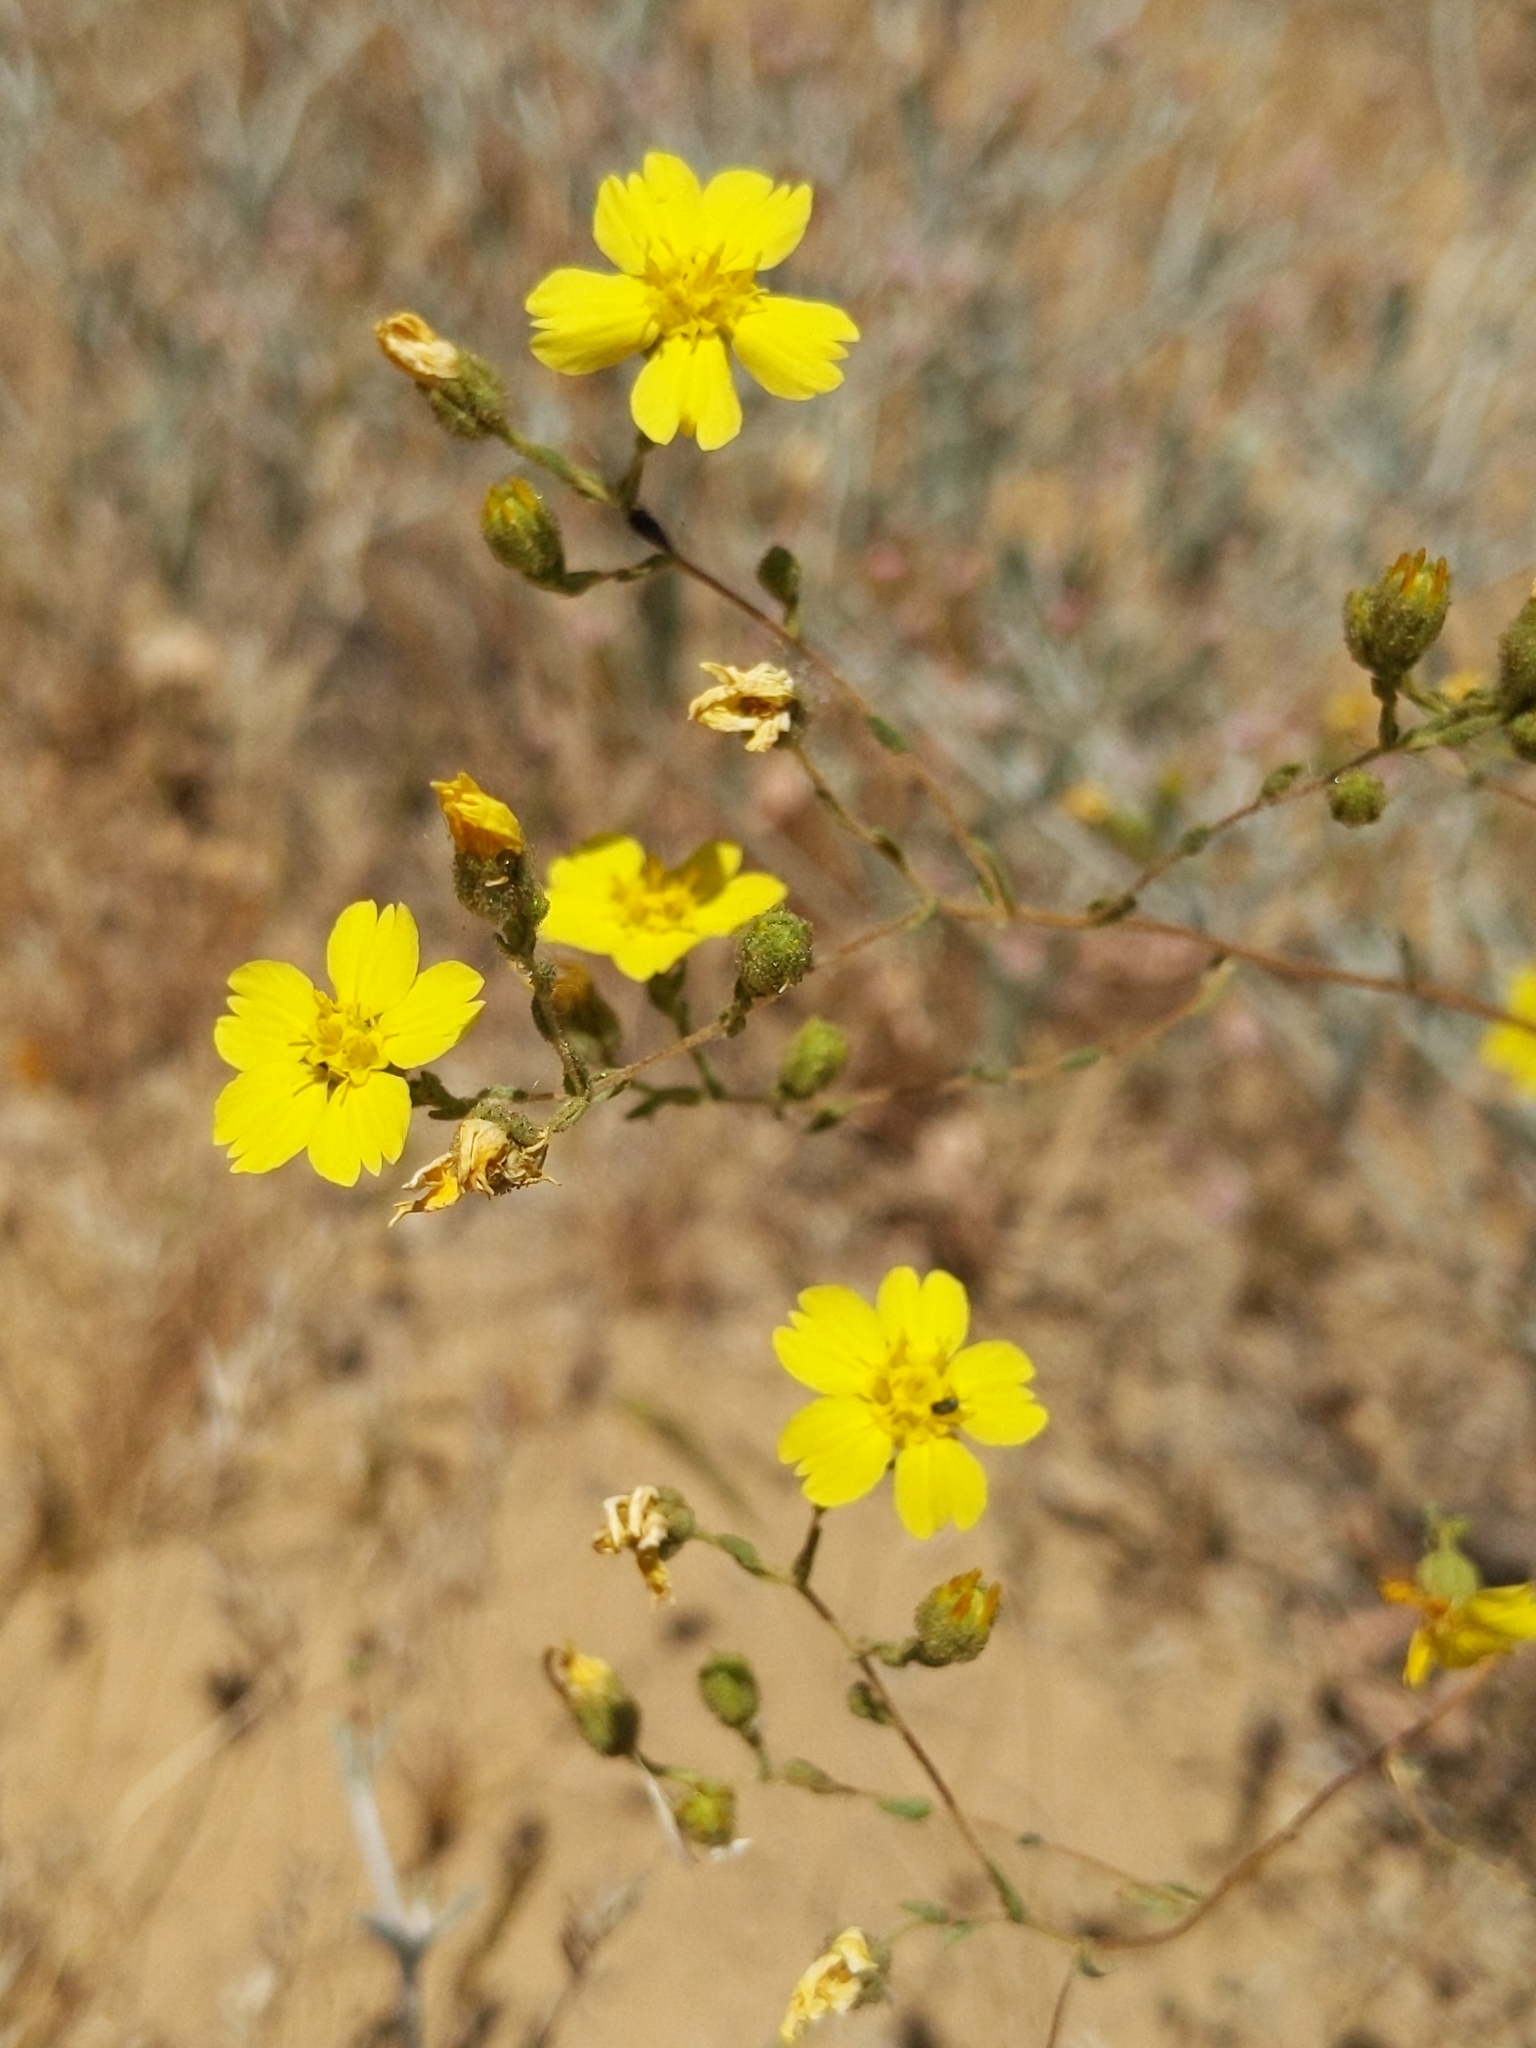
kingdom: Plantae
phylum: Tracheophyta
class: Magnoliopsida
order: Asterales
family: Asteraceae
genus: Deinandra
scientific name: Deinandra kelloggii
